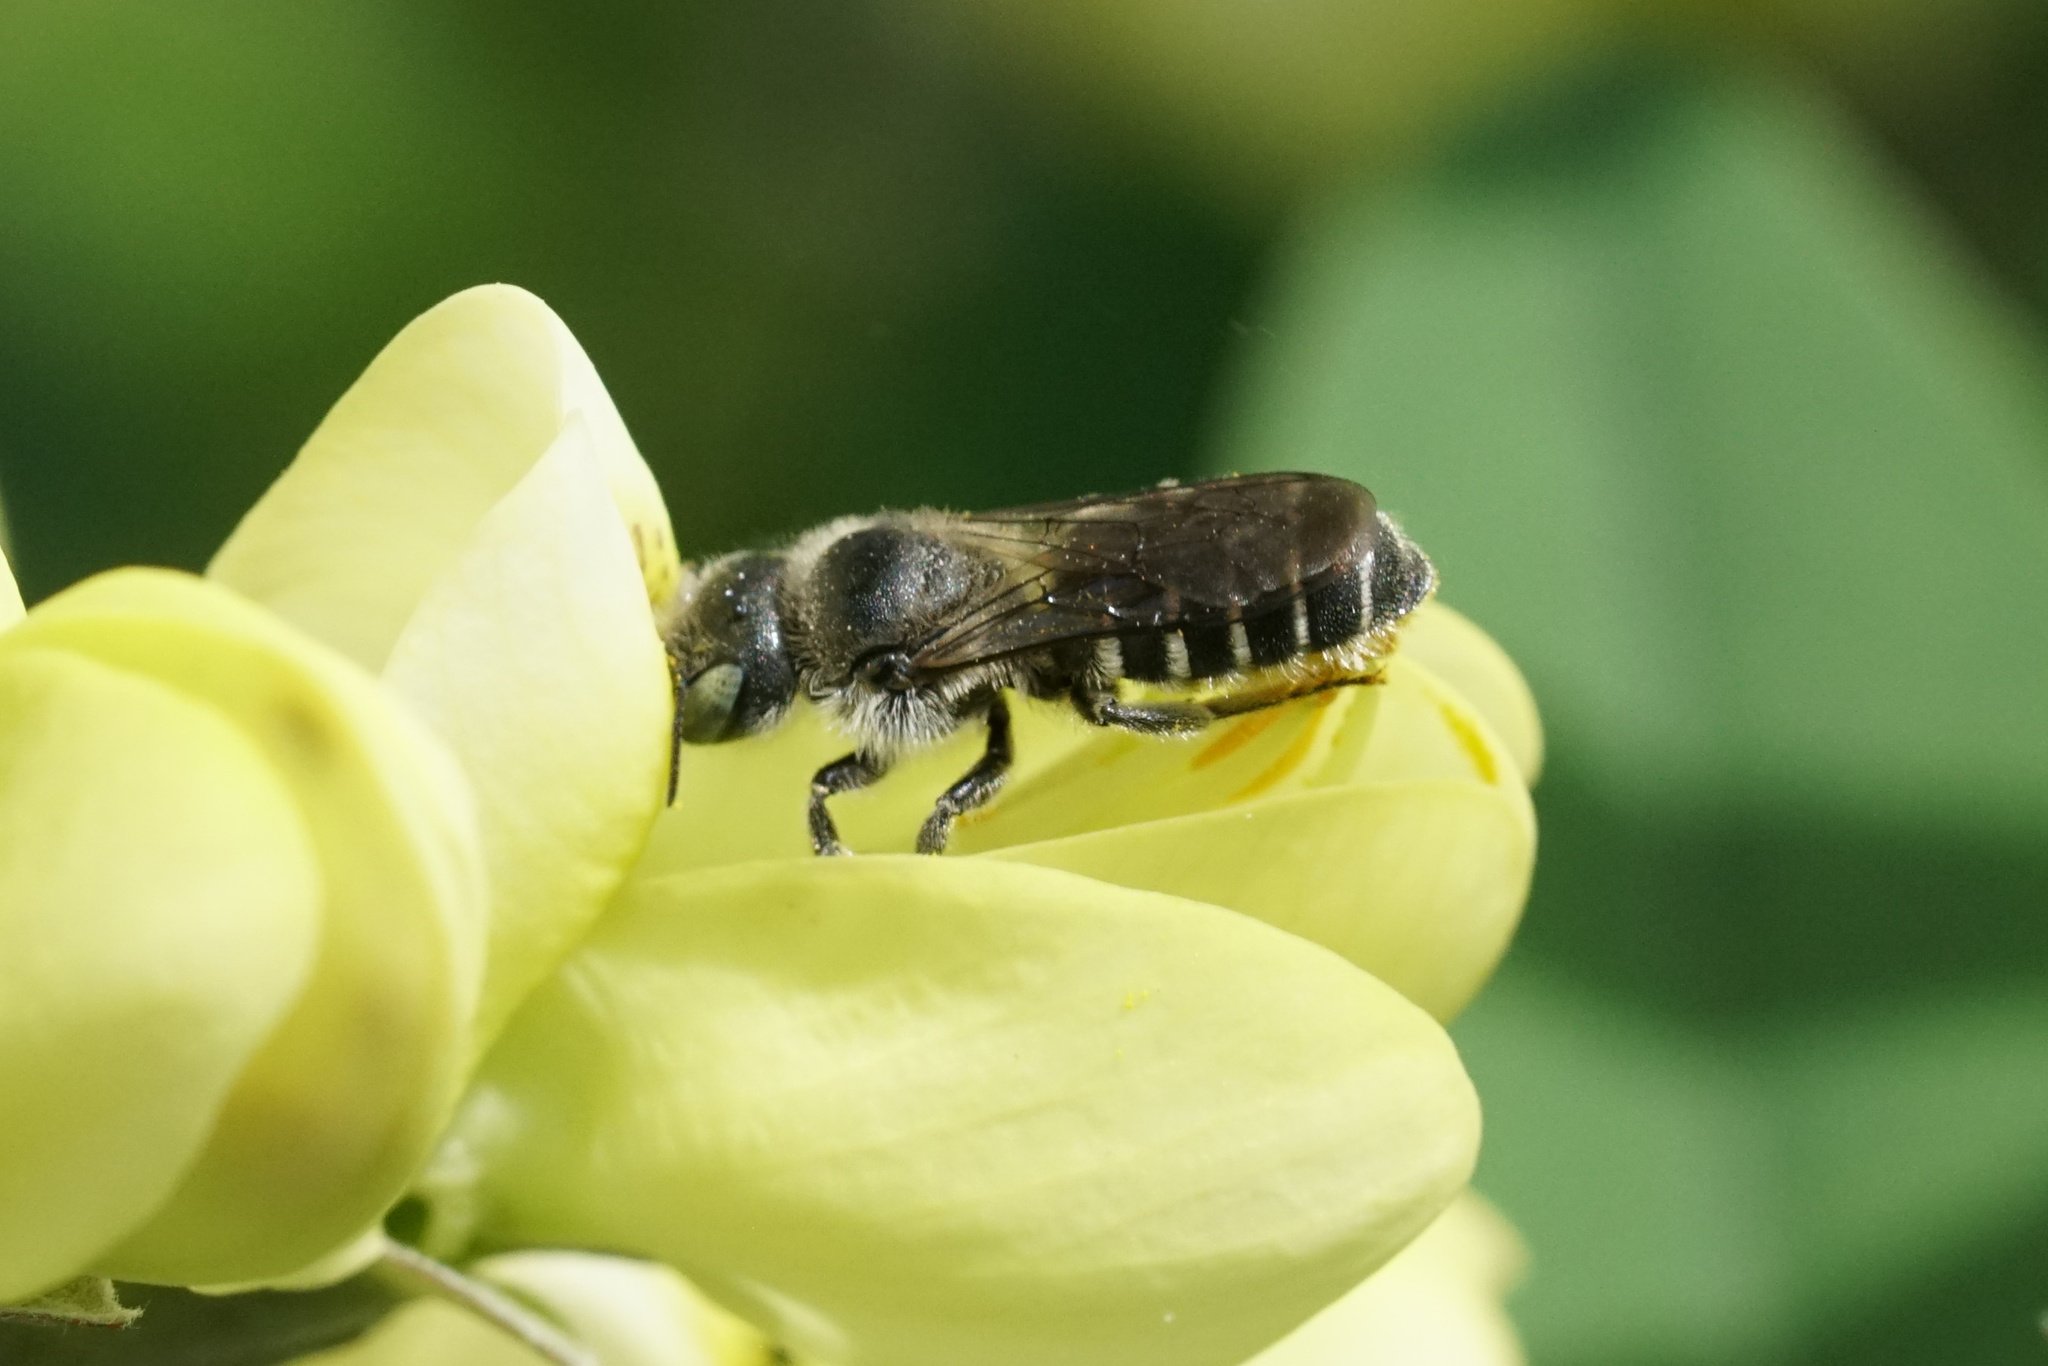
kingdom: Animalia
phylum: Arthropoda
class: Insecta
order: Hymenoptera
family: Megachilidae
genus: Alcidamea
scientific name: Alcidamea
